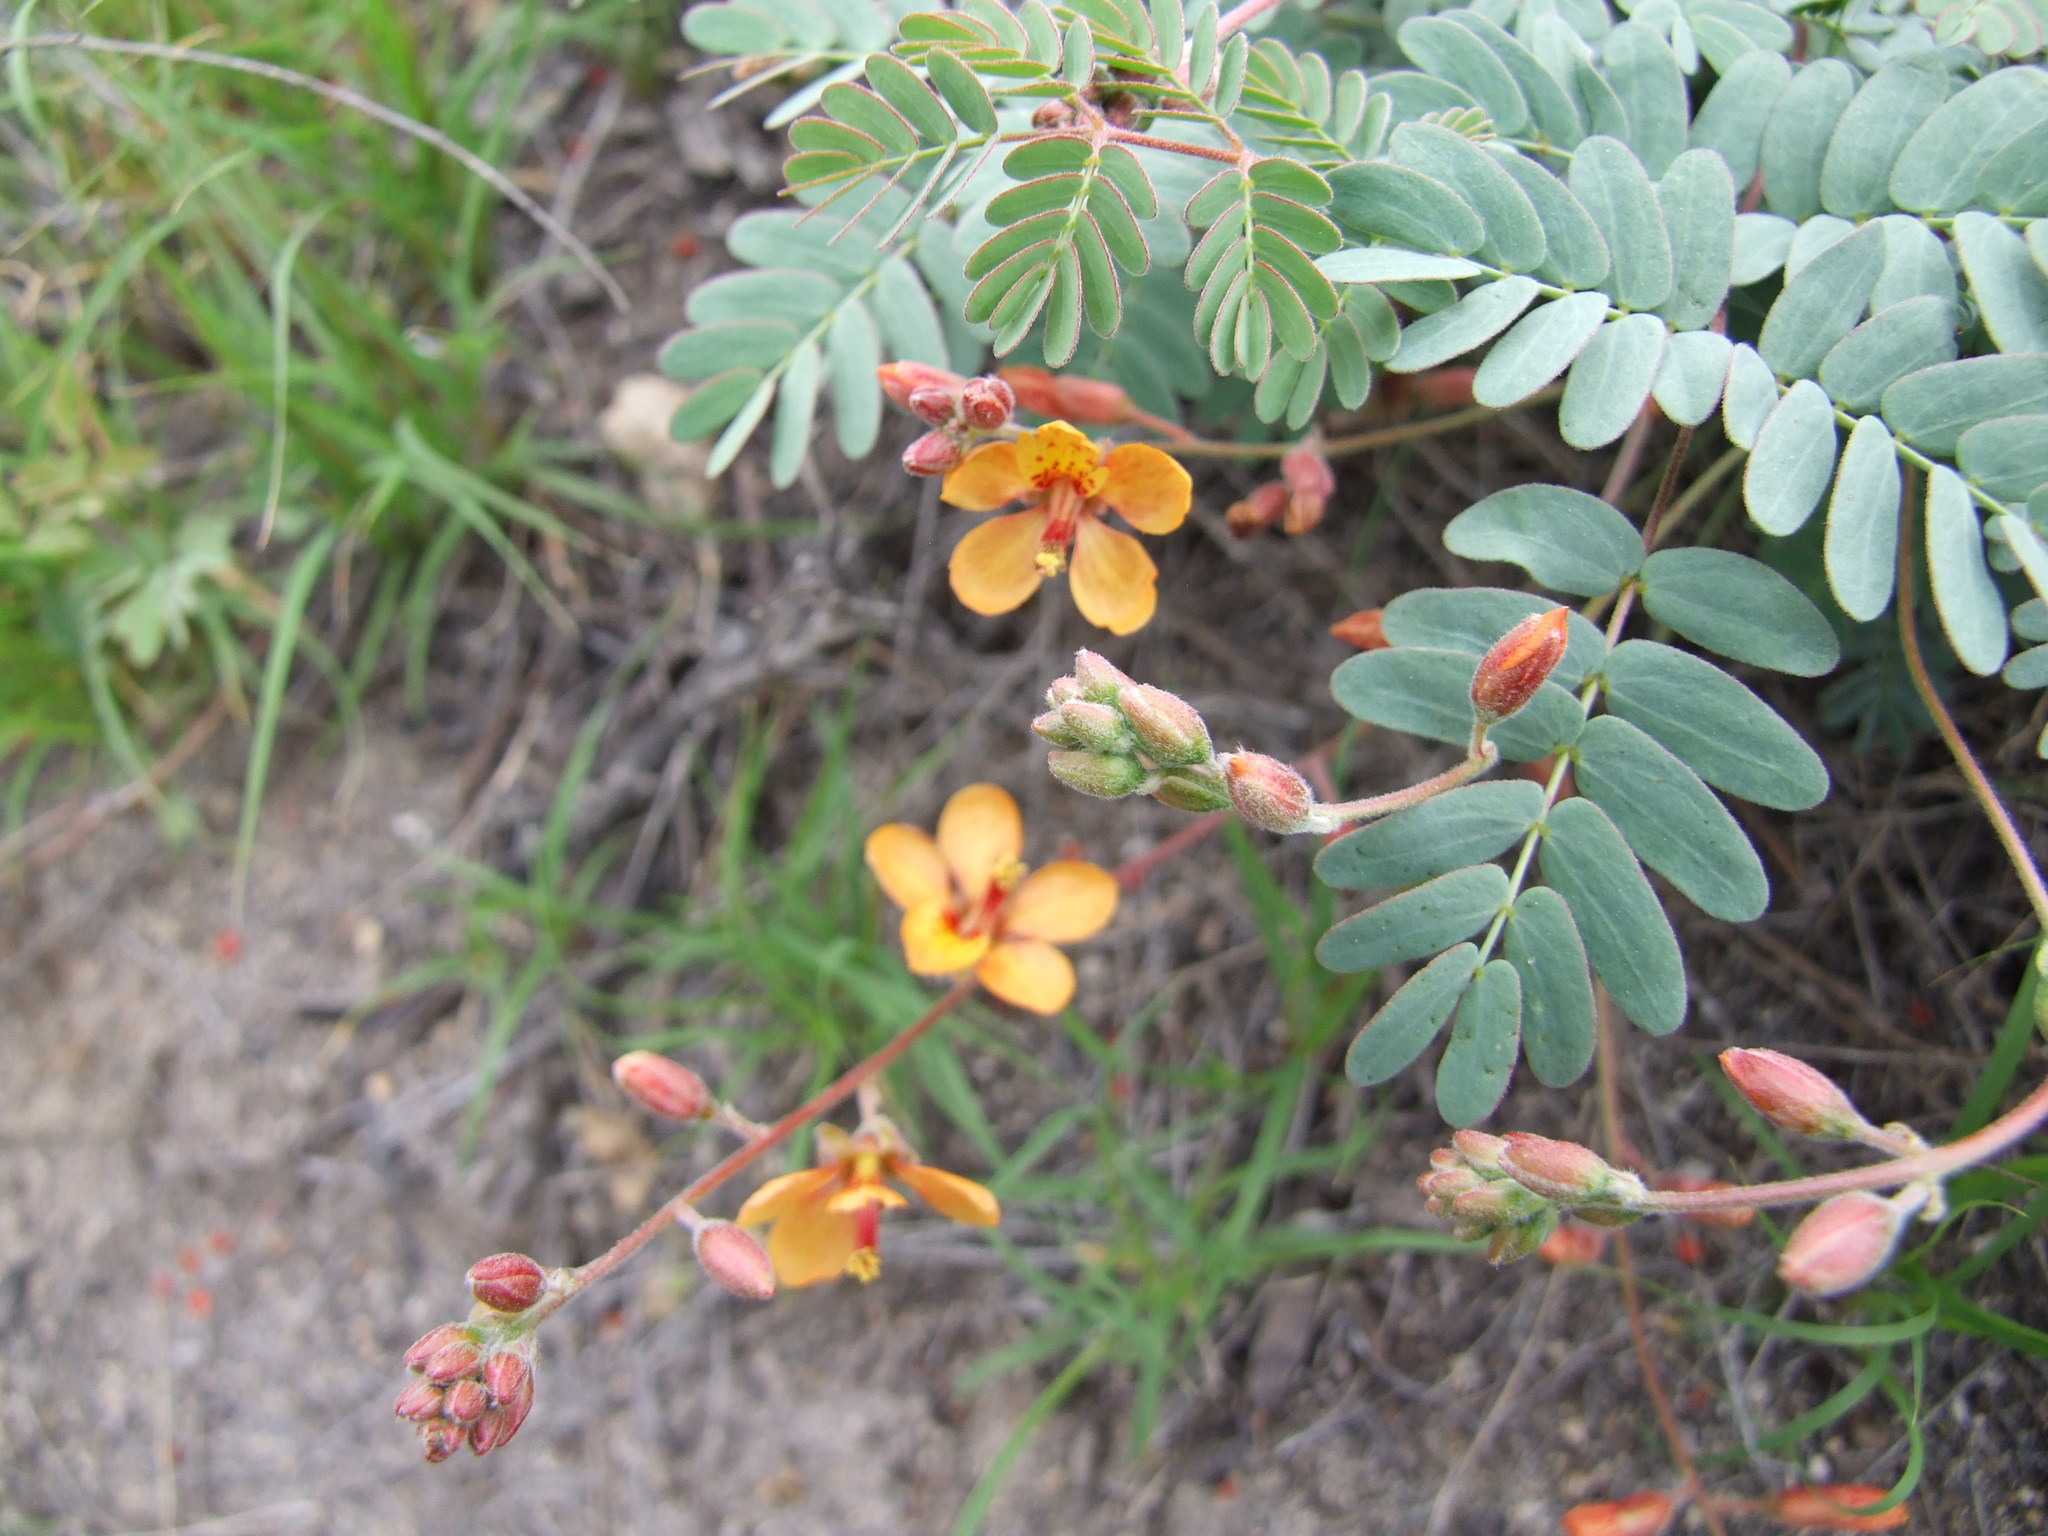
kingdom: Plantae
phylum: Tracheophyta
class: Magnoliopsida
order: Fabales
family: Fabaceae
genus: Hoffmannseggia
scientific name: Hoffmannseggia prostrata
